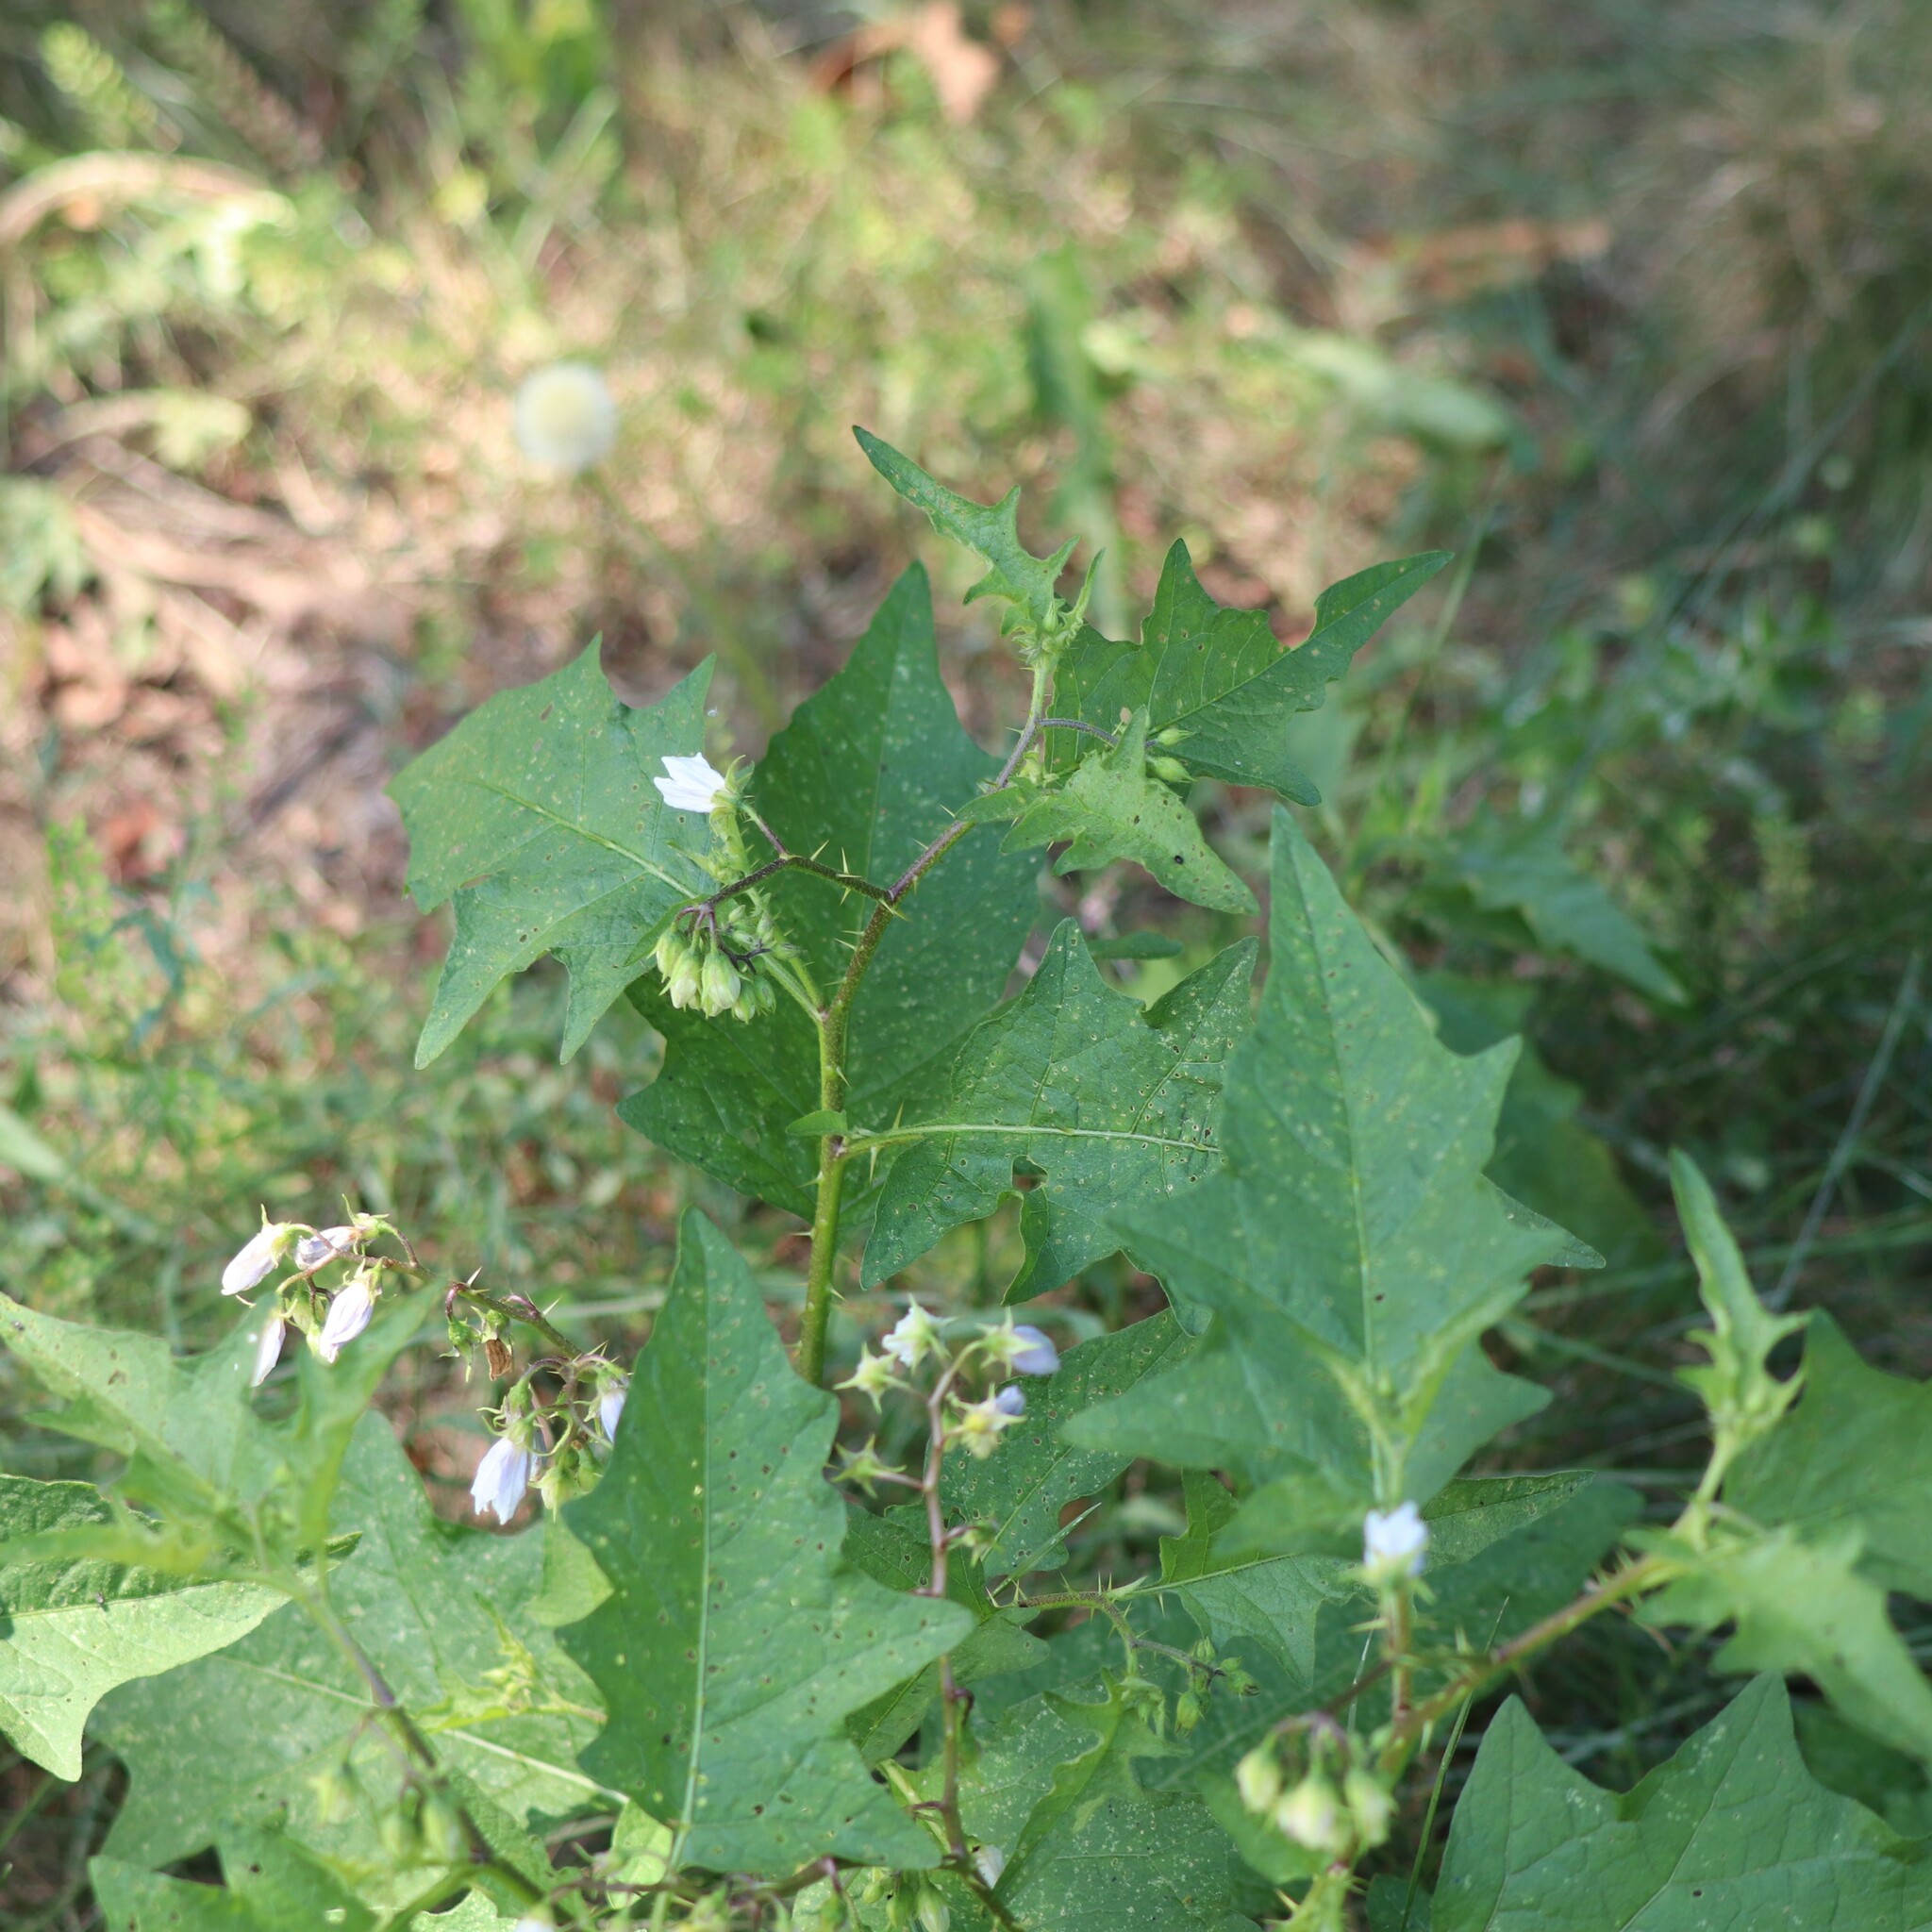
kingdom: Plantae
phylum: Tracheophyta
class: Magnoliopsida
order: Solanales
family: Solanaceae
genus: Solanum
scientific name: Solanum carolinense
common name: Horse-nettle
